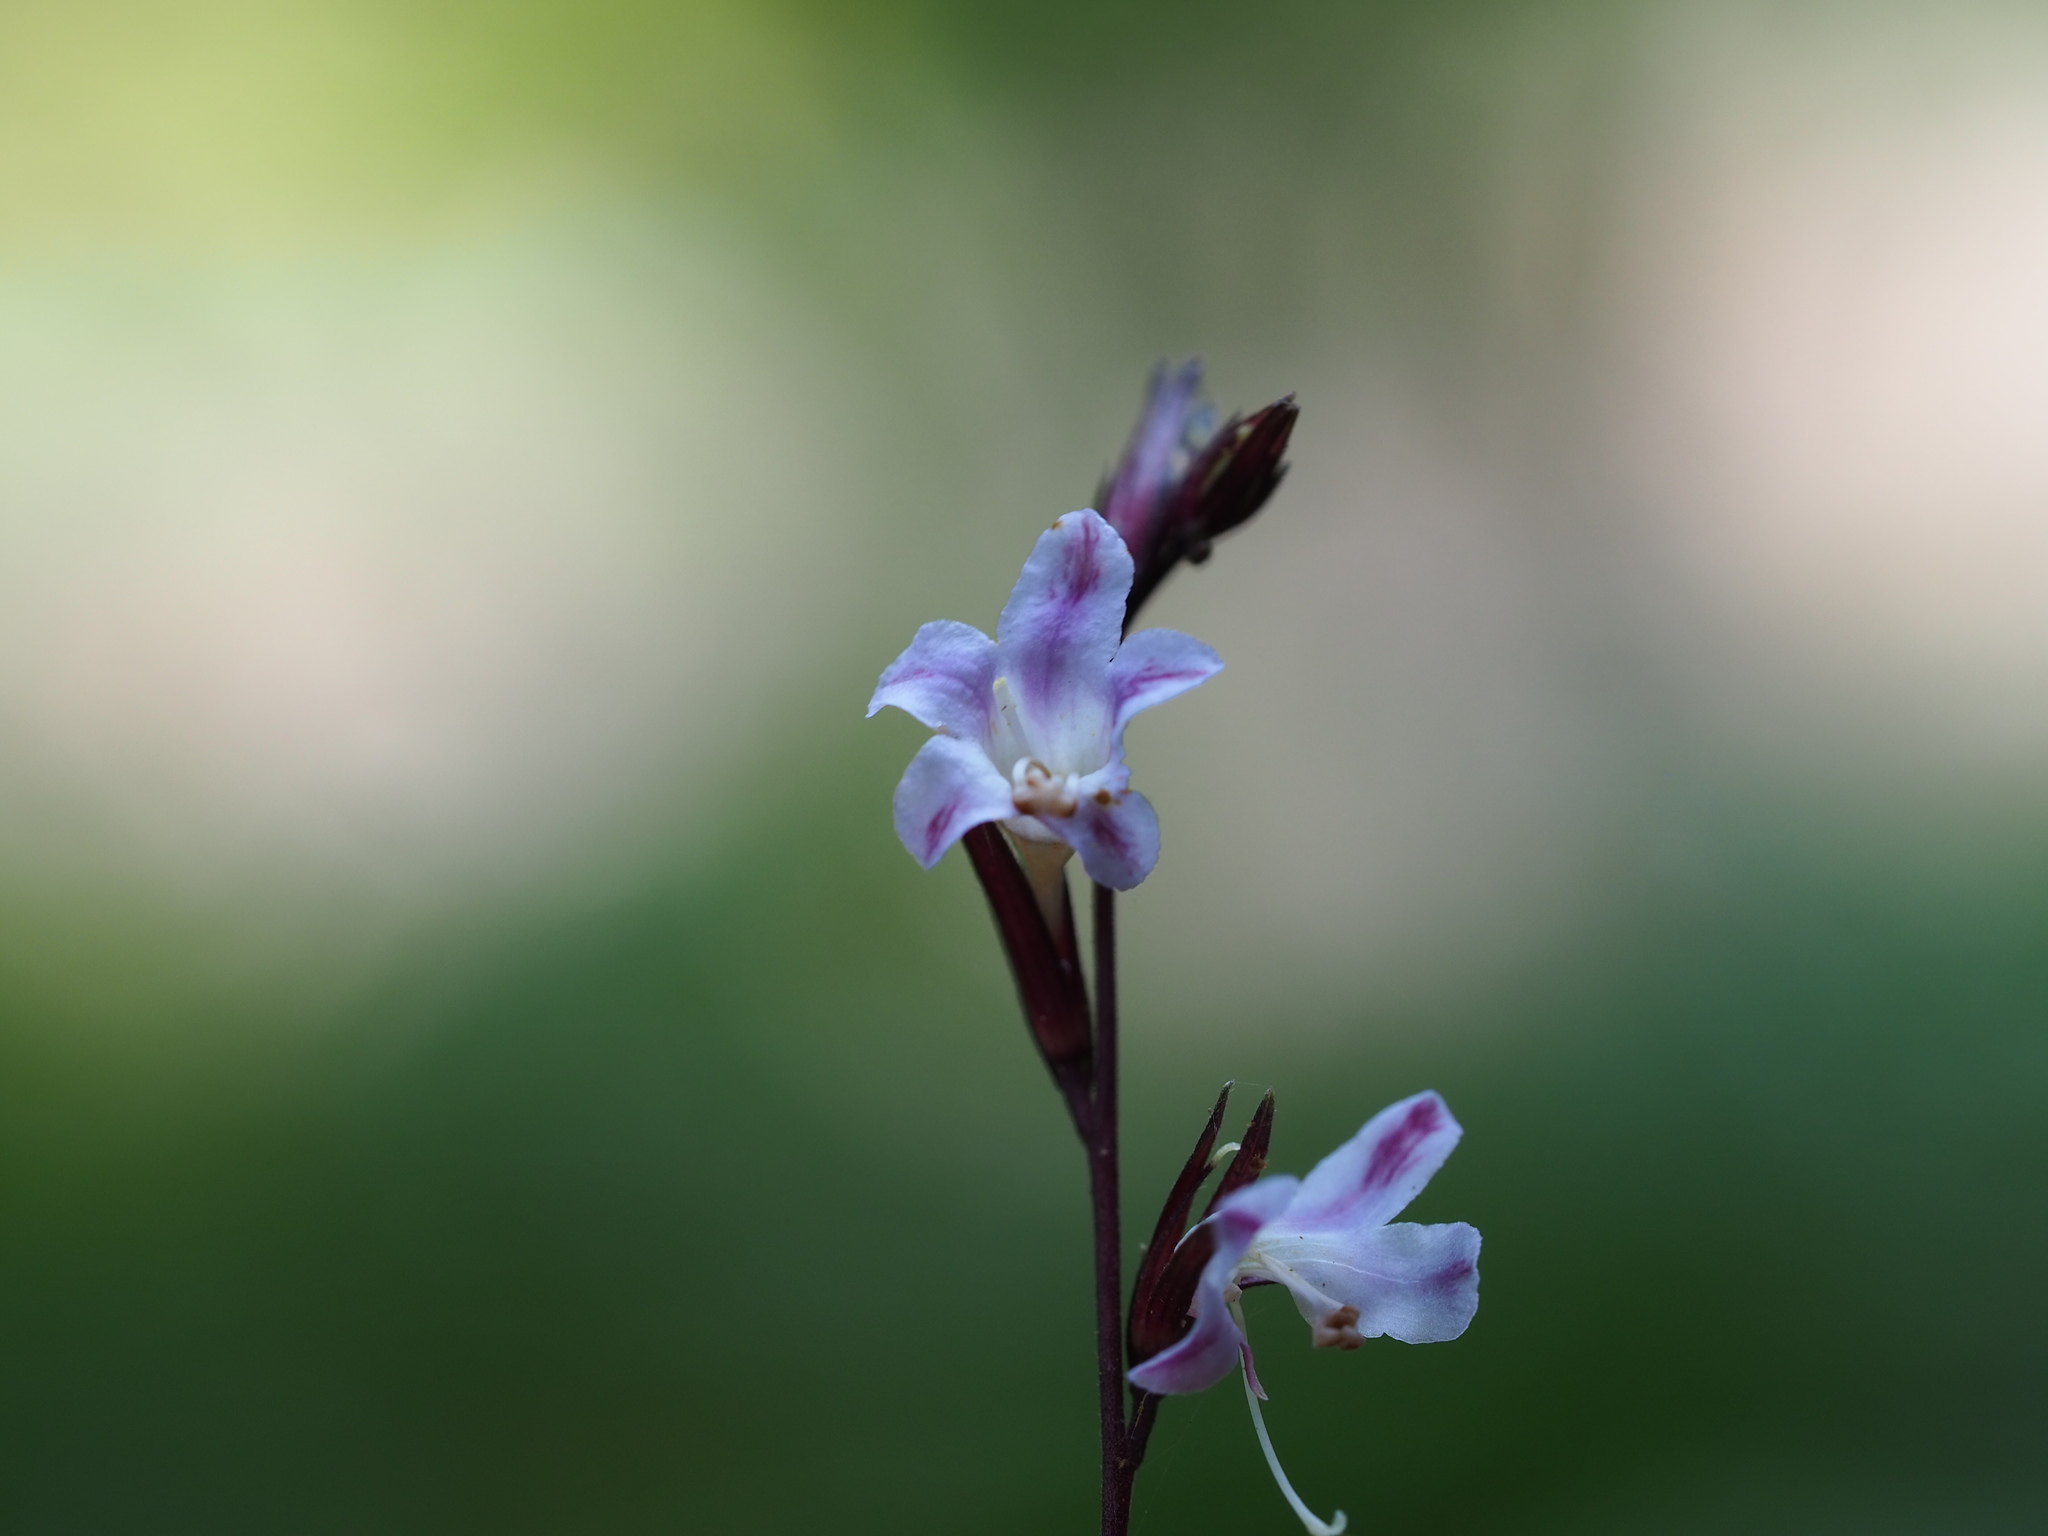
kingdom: Plantae
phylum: Tracheophyta
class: Magnoliopsida
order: Lamiales
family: Acanthaceae
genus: Staurogyne
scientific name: Staurogyne concinnula
